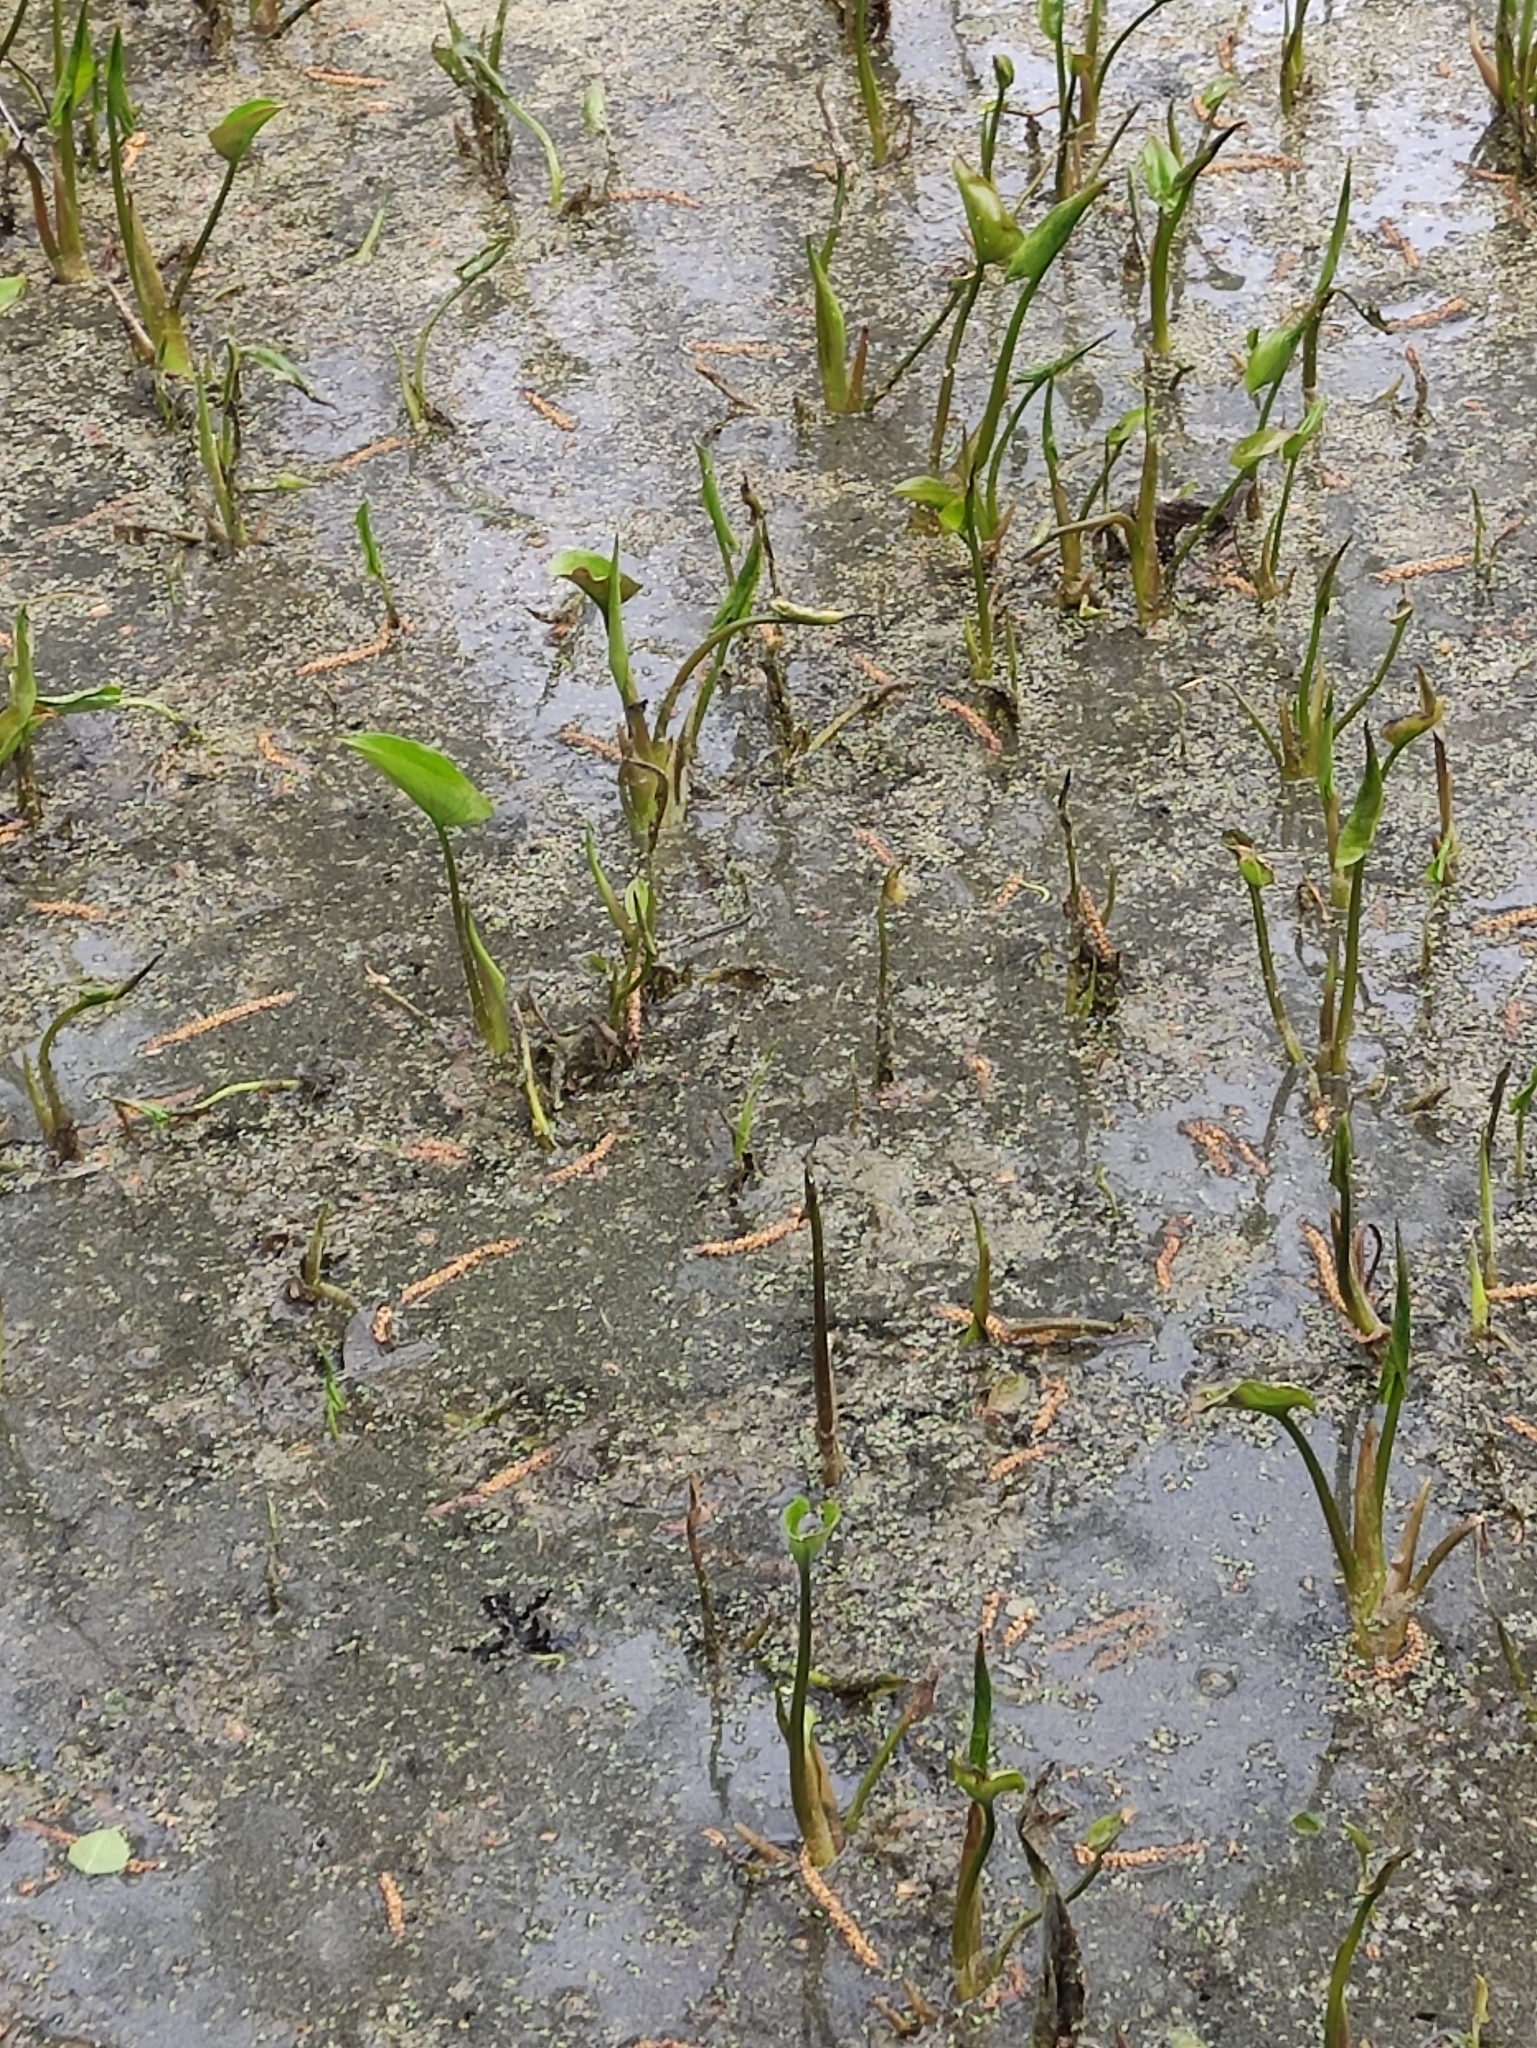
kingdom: Plantae
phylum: Tracheophyta
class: Liliopsida
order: Alismatales
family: Araceae
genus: Calla
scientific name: Calla palustris
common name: Bog arum
